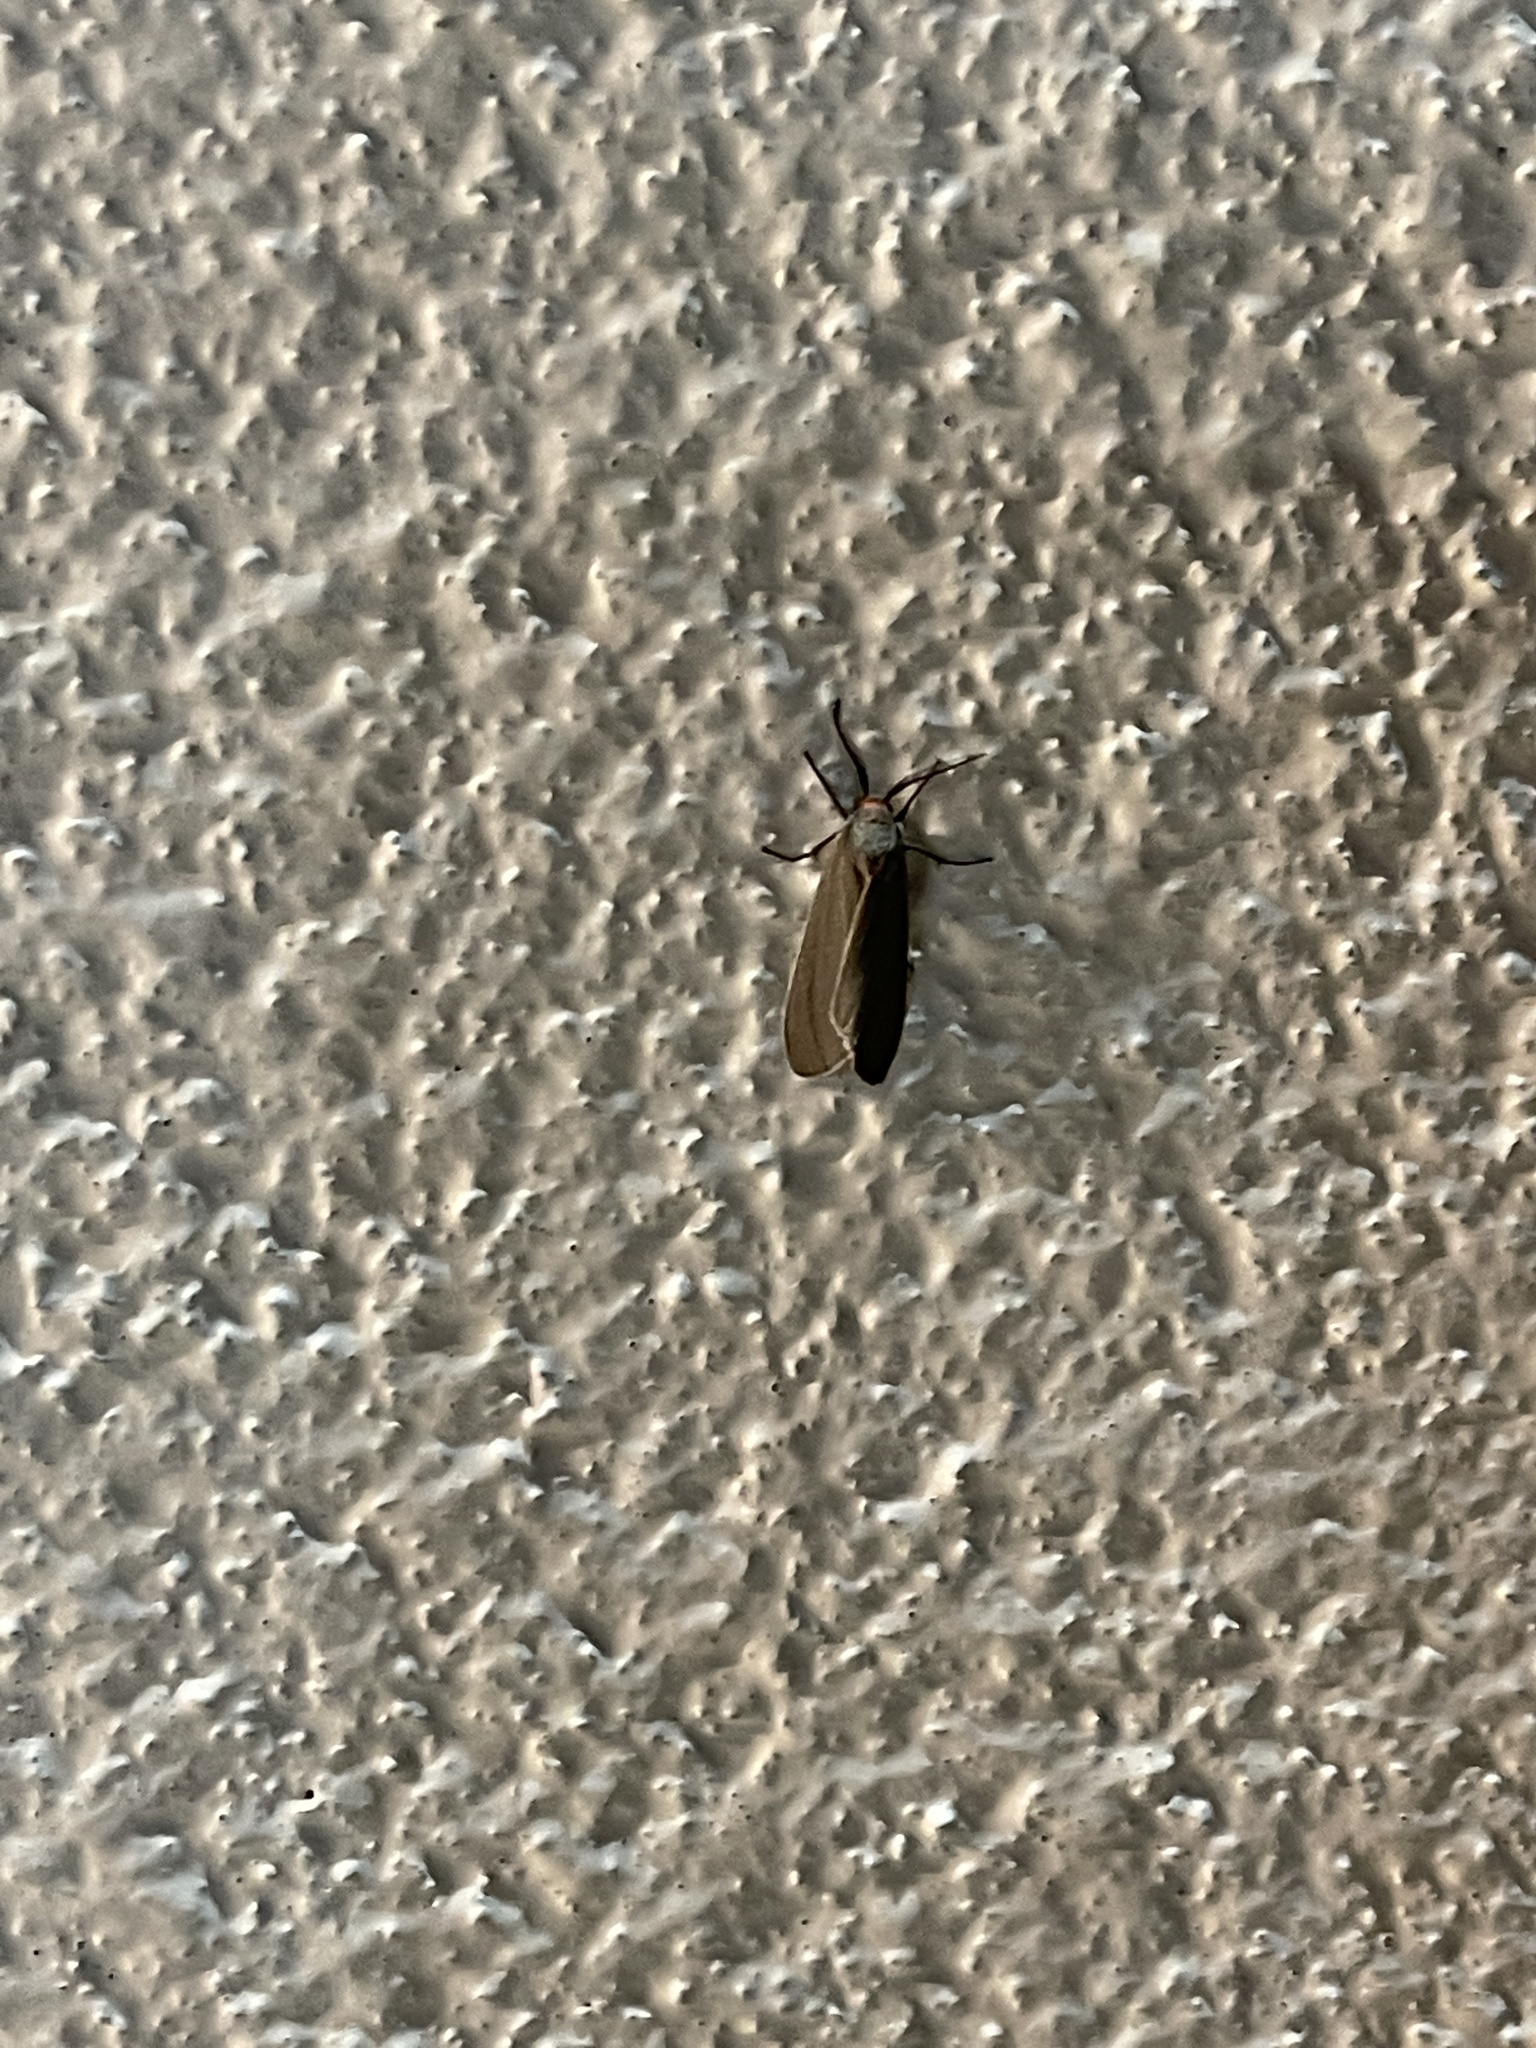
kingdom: Animalia
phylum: Arthropoda
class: Insecta
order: Lepidoptera
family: Erebidae
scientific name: Erebidae
